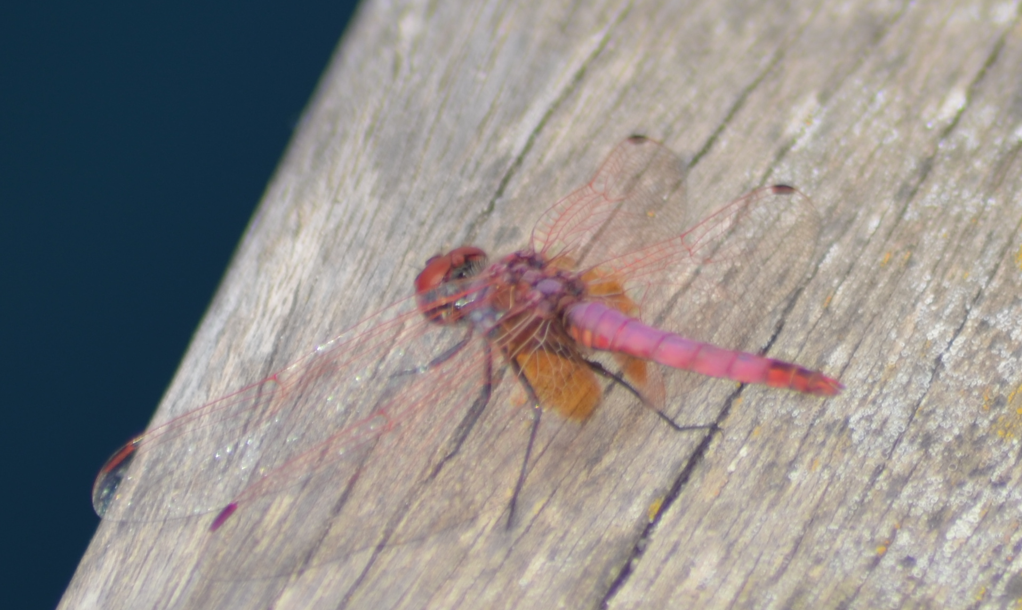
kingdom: Animalia
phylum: Arthropoda
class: Insecta
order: Odonata
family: Libellulidae
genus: Trithemis
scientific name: Trithemis annulata
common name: Violet dropwing
